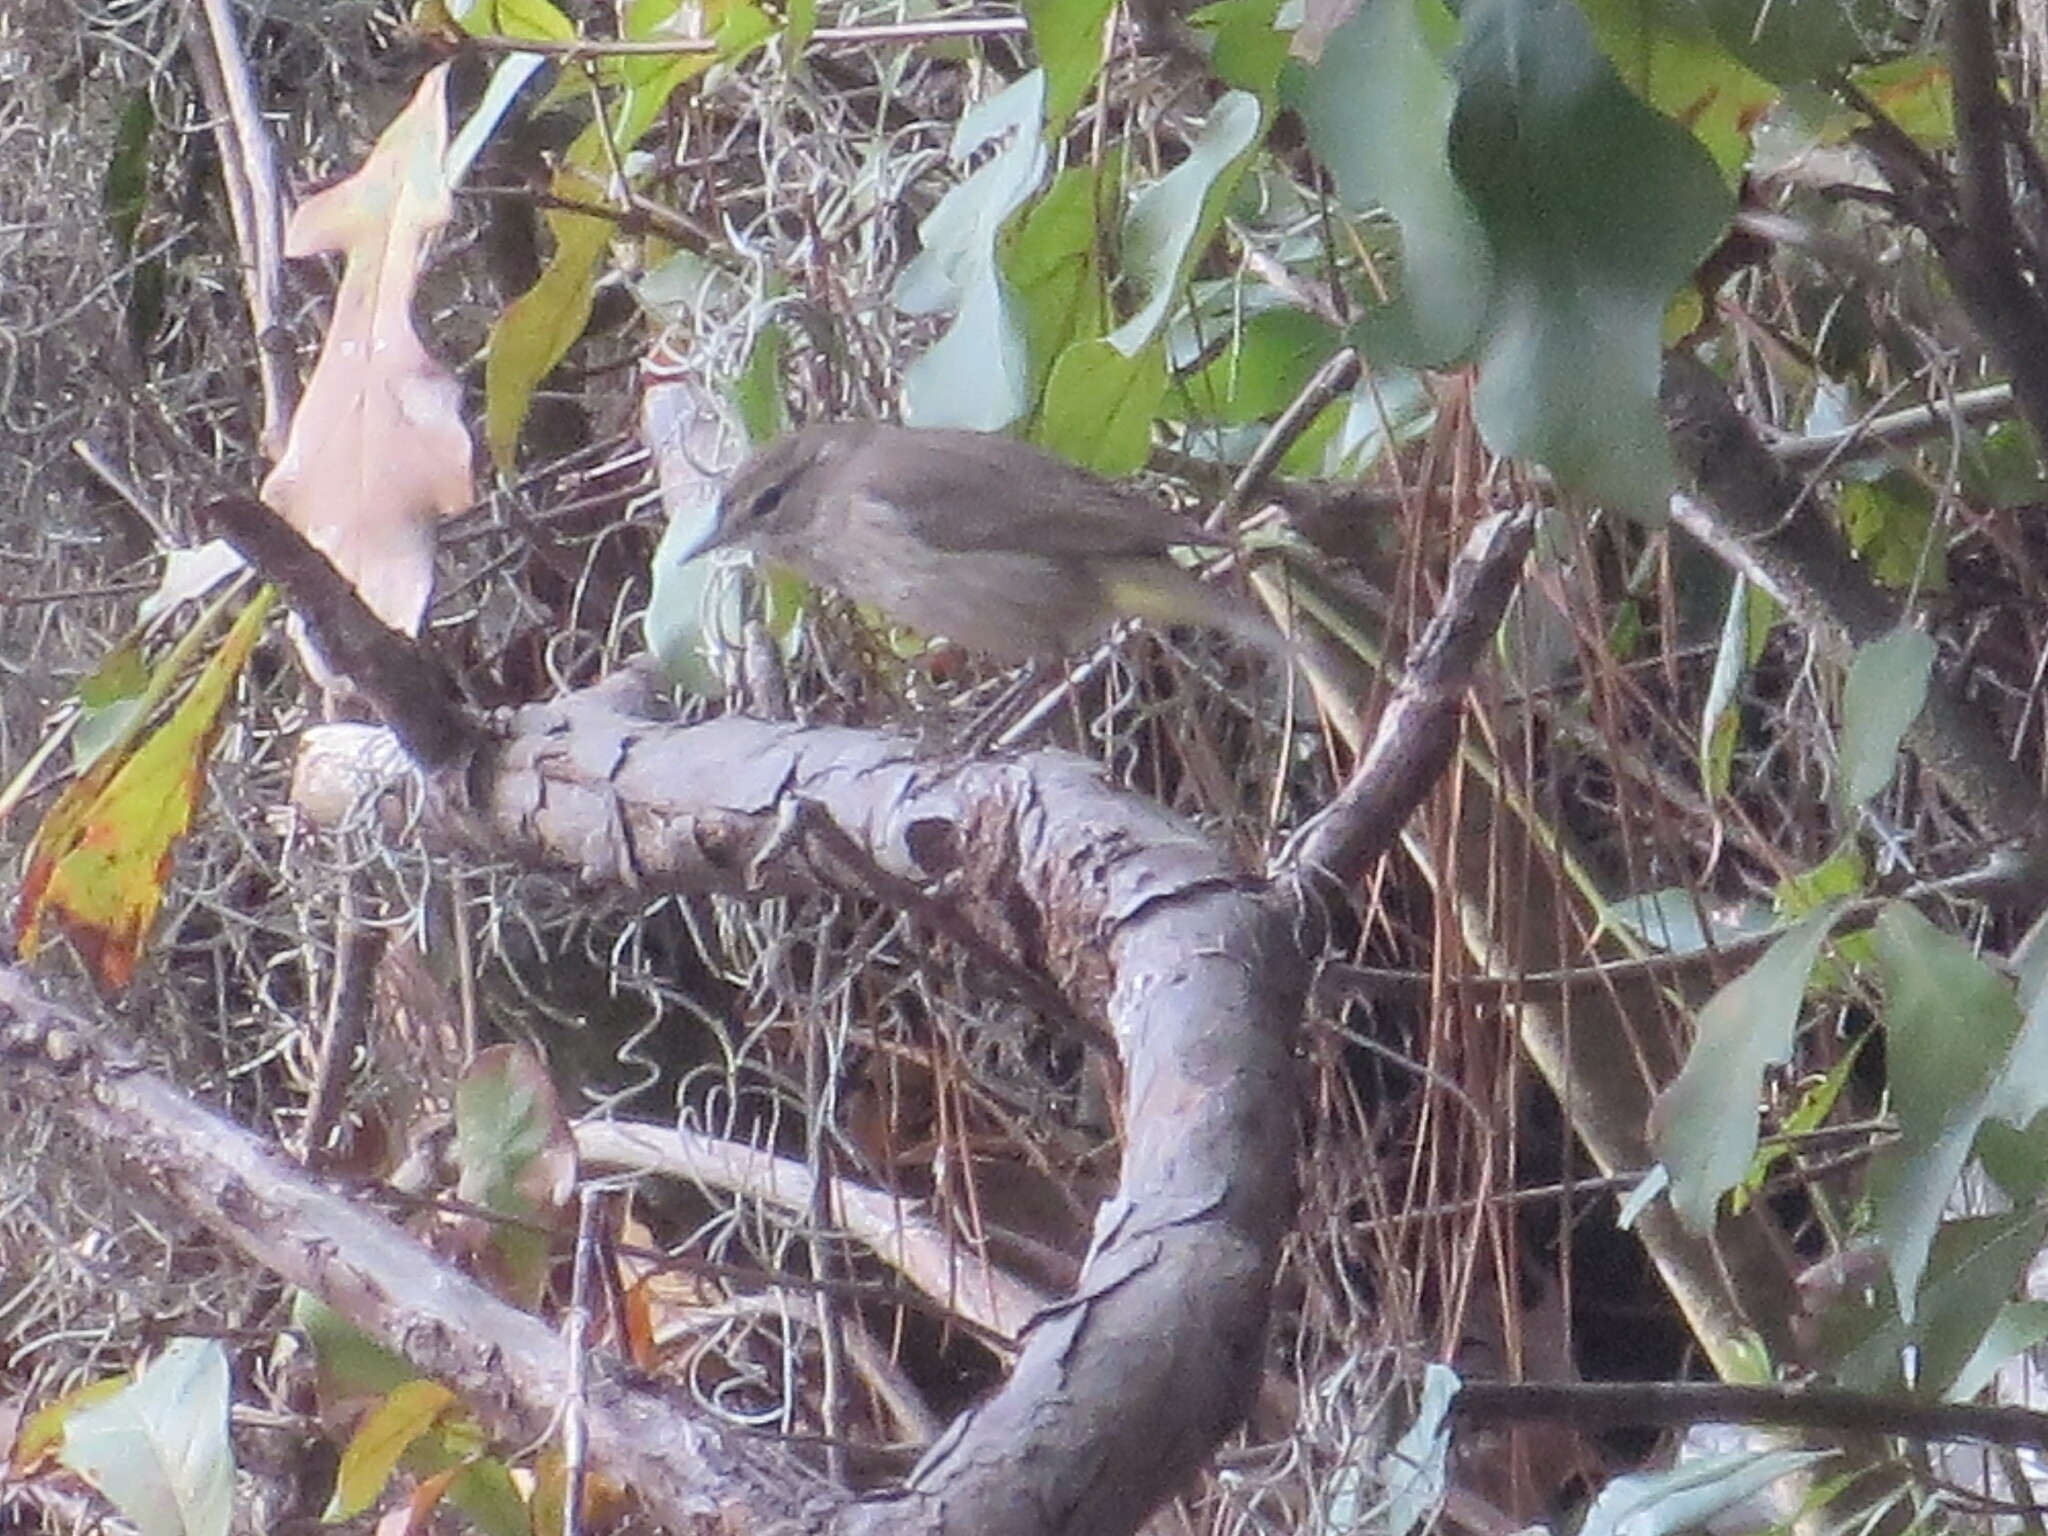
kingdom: Animalia
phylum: Chordata
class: Aves
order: Passeriformes
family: Parulidae
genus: Setophaga
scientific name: Setophaga palmarum
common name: Palm warbler
